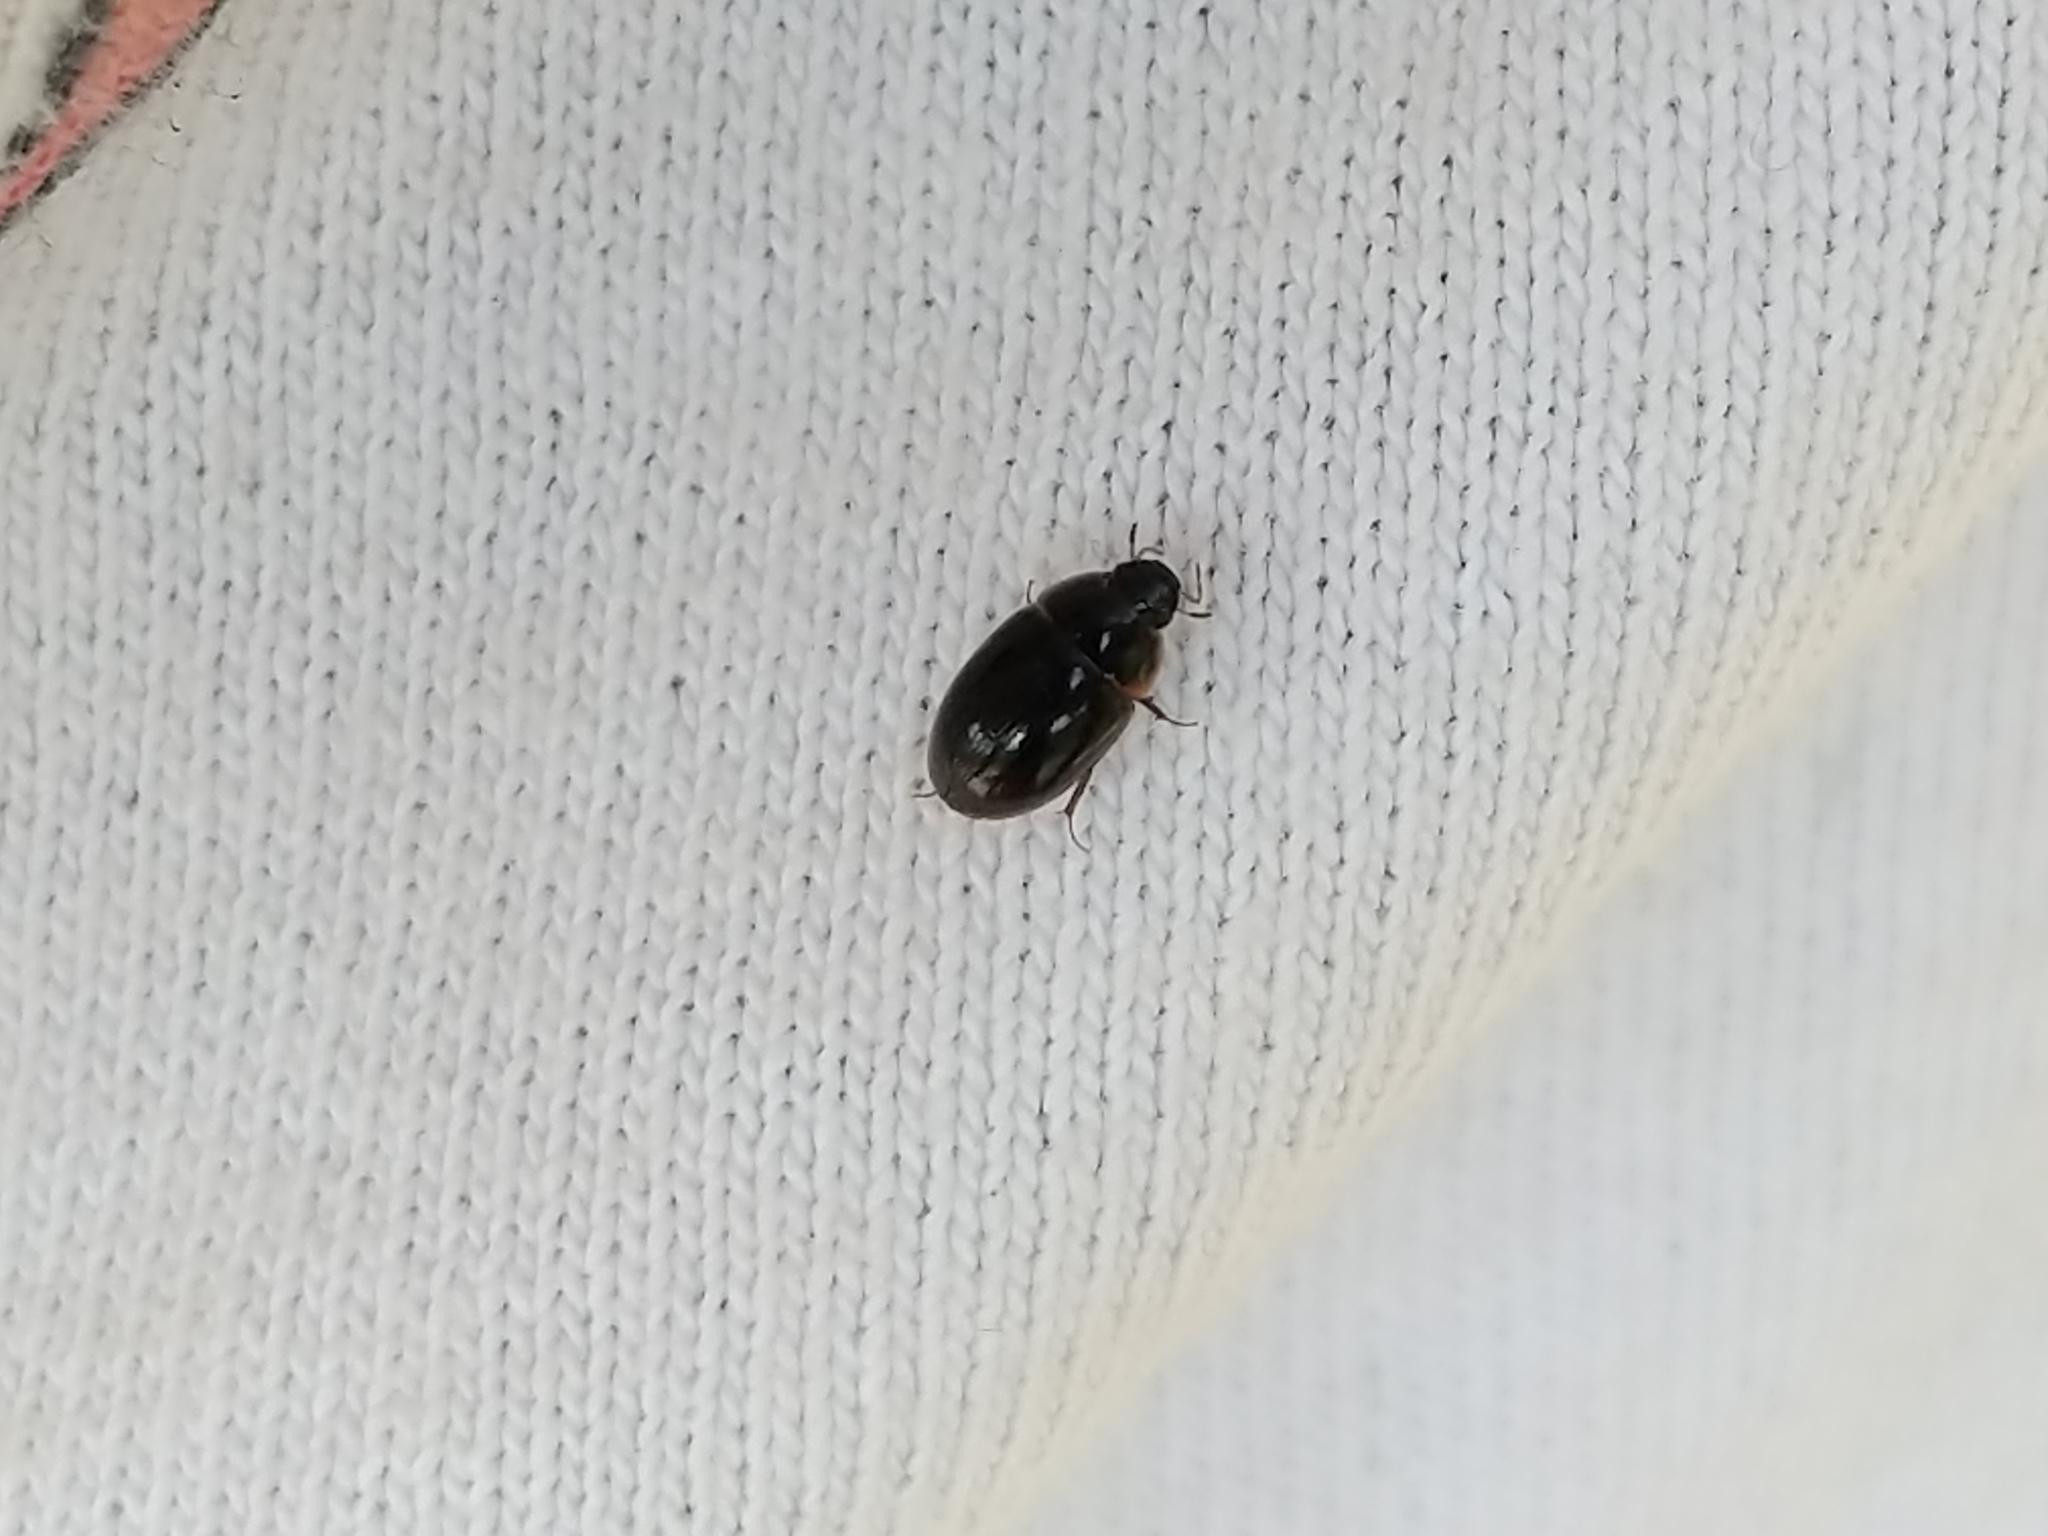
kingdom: Animalia
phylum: Arthropoda
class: Insecta
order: Coleoptera
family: Hydrophilidae
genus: Cymbiodyta
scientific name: Cymbiodyta
